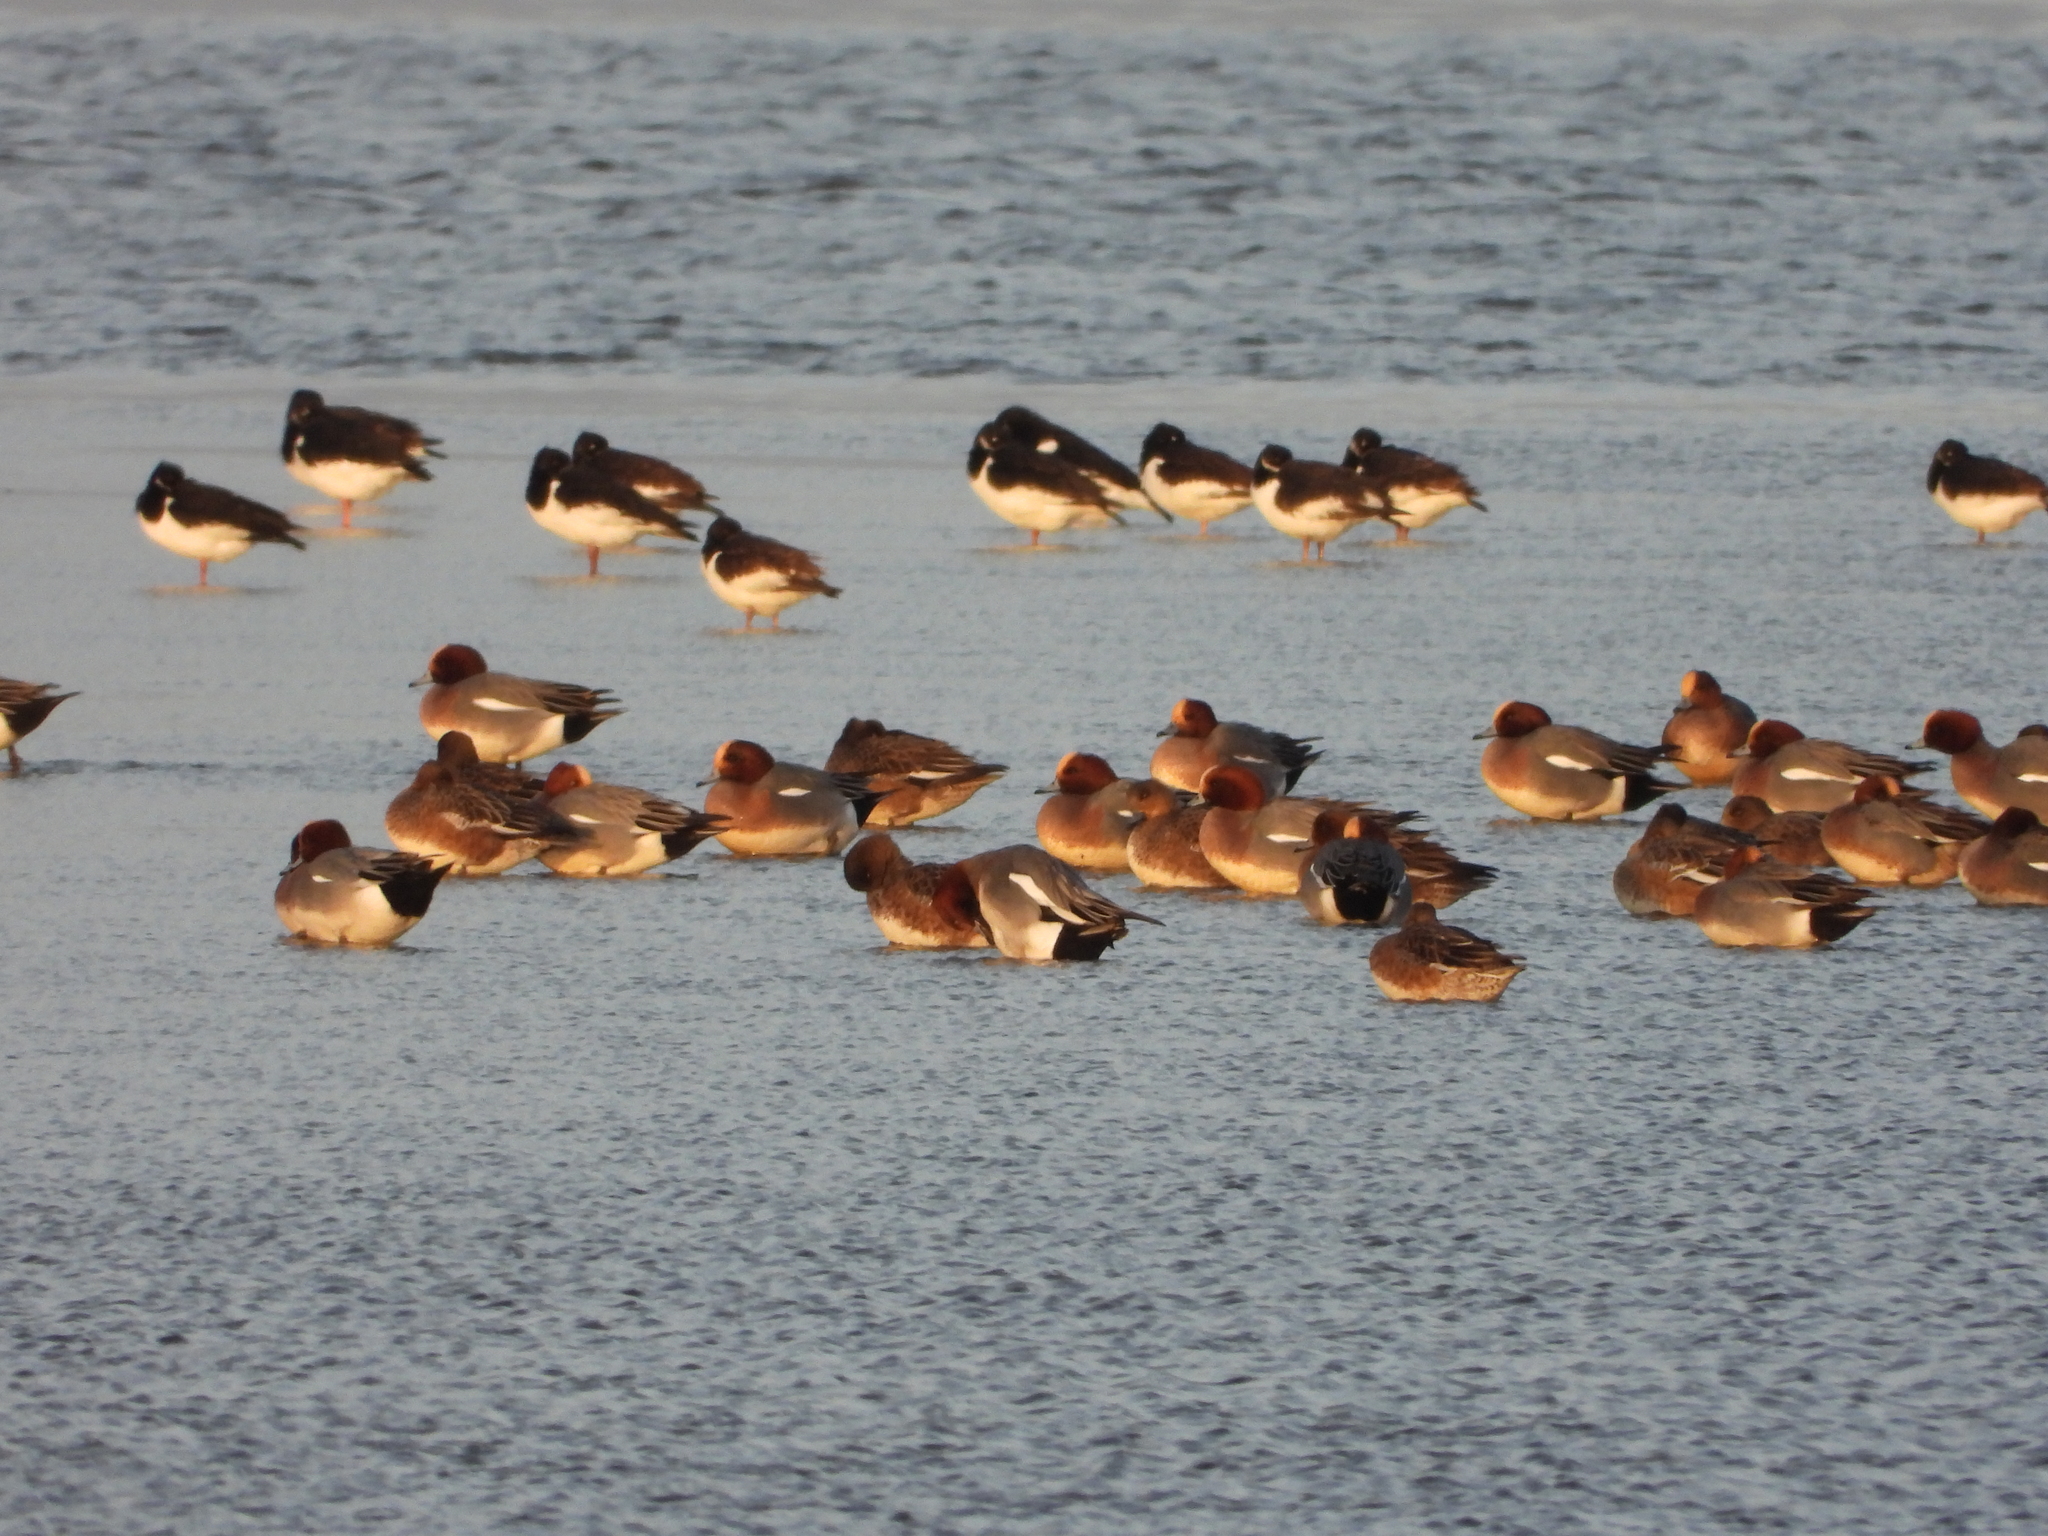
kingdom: Animalia
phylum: Chordata
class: Aves
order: Anseriformes
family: Anatidae
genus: Mareca
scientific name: Mareca penelope
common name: Eurasian wigeon
